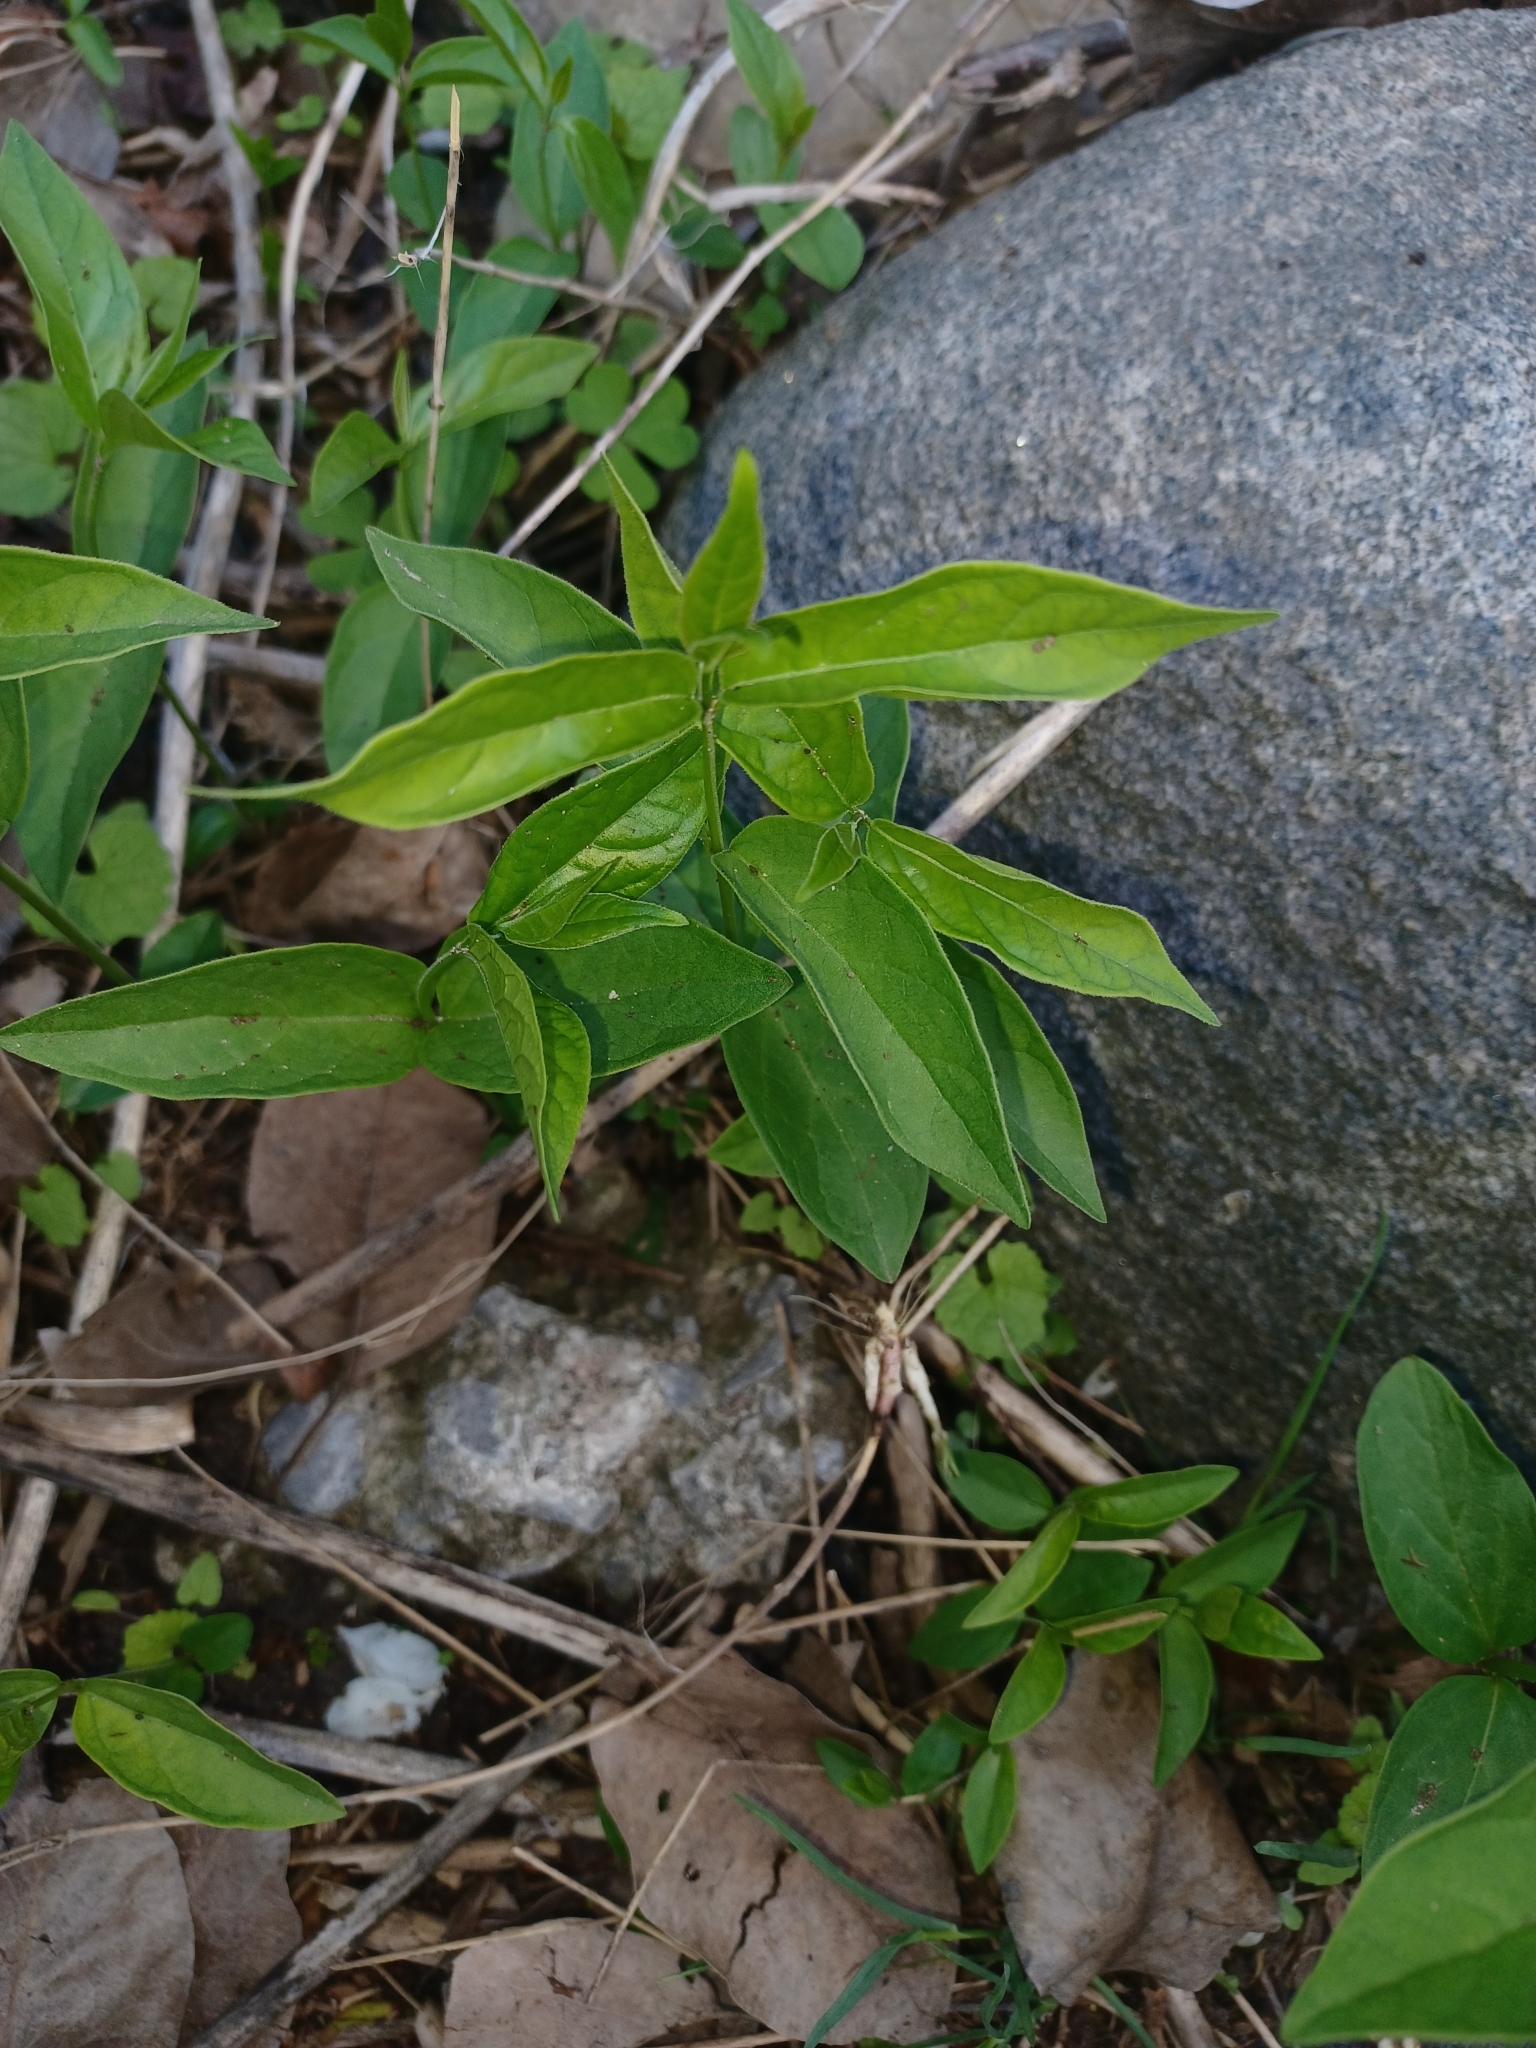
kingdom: Plantae
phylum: Tracheophyta
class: Magnoliopsida
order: Gentianales
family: Apocynaceae
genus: Vincetoxicum
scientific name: Vincetoxicum rossicum
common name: Dog-strangling vine
